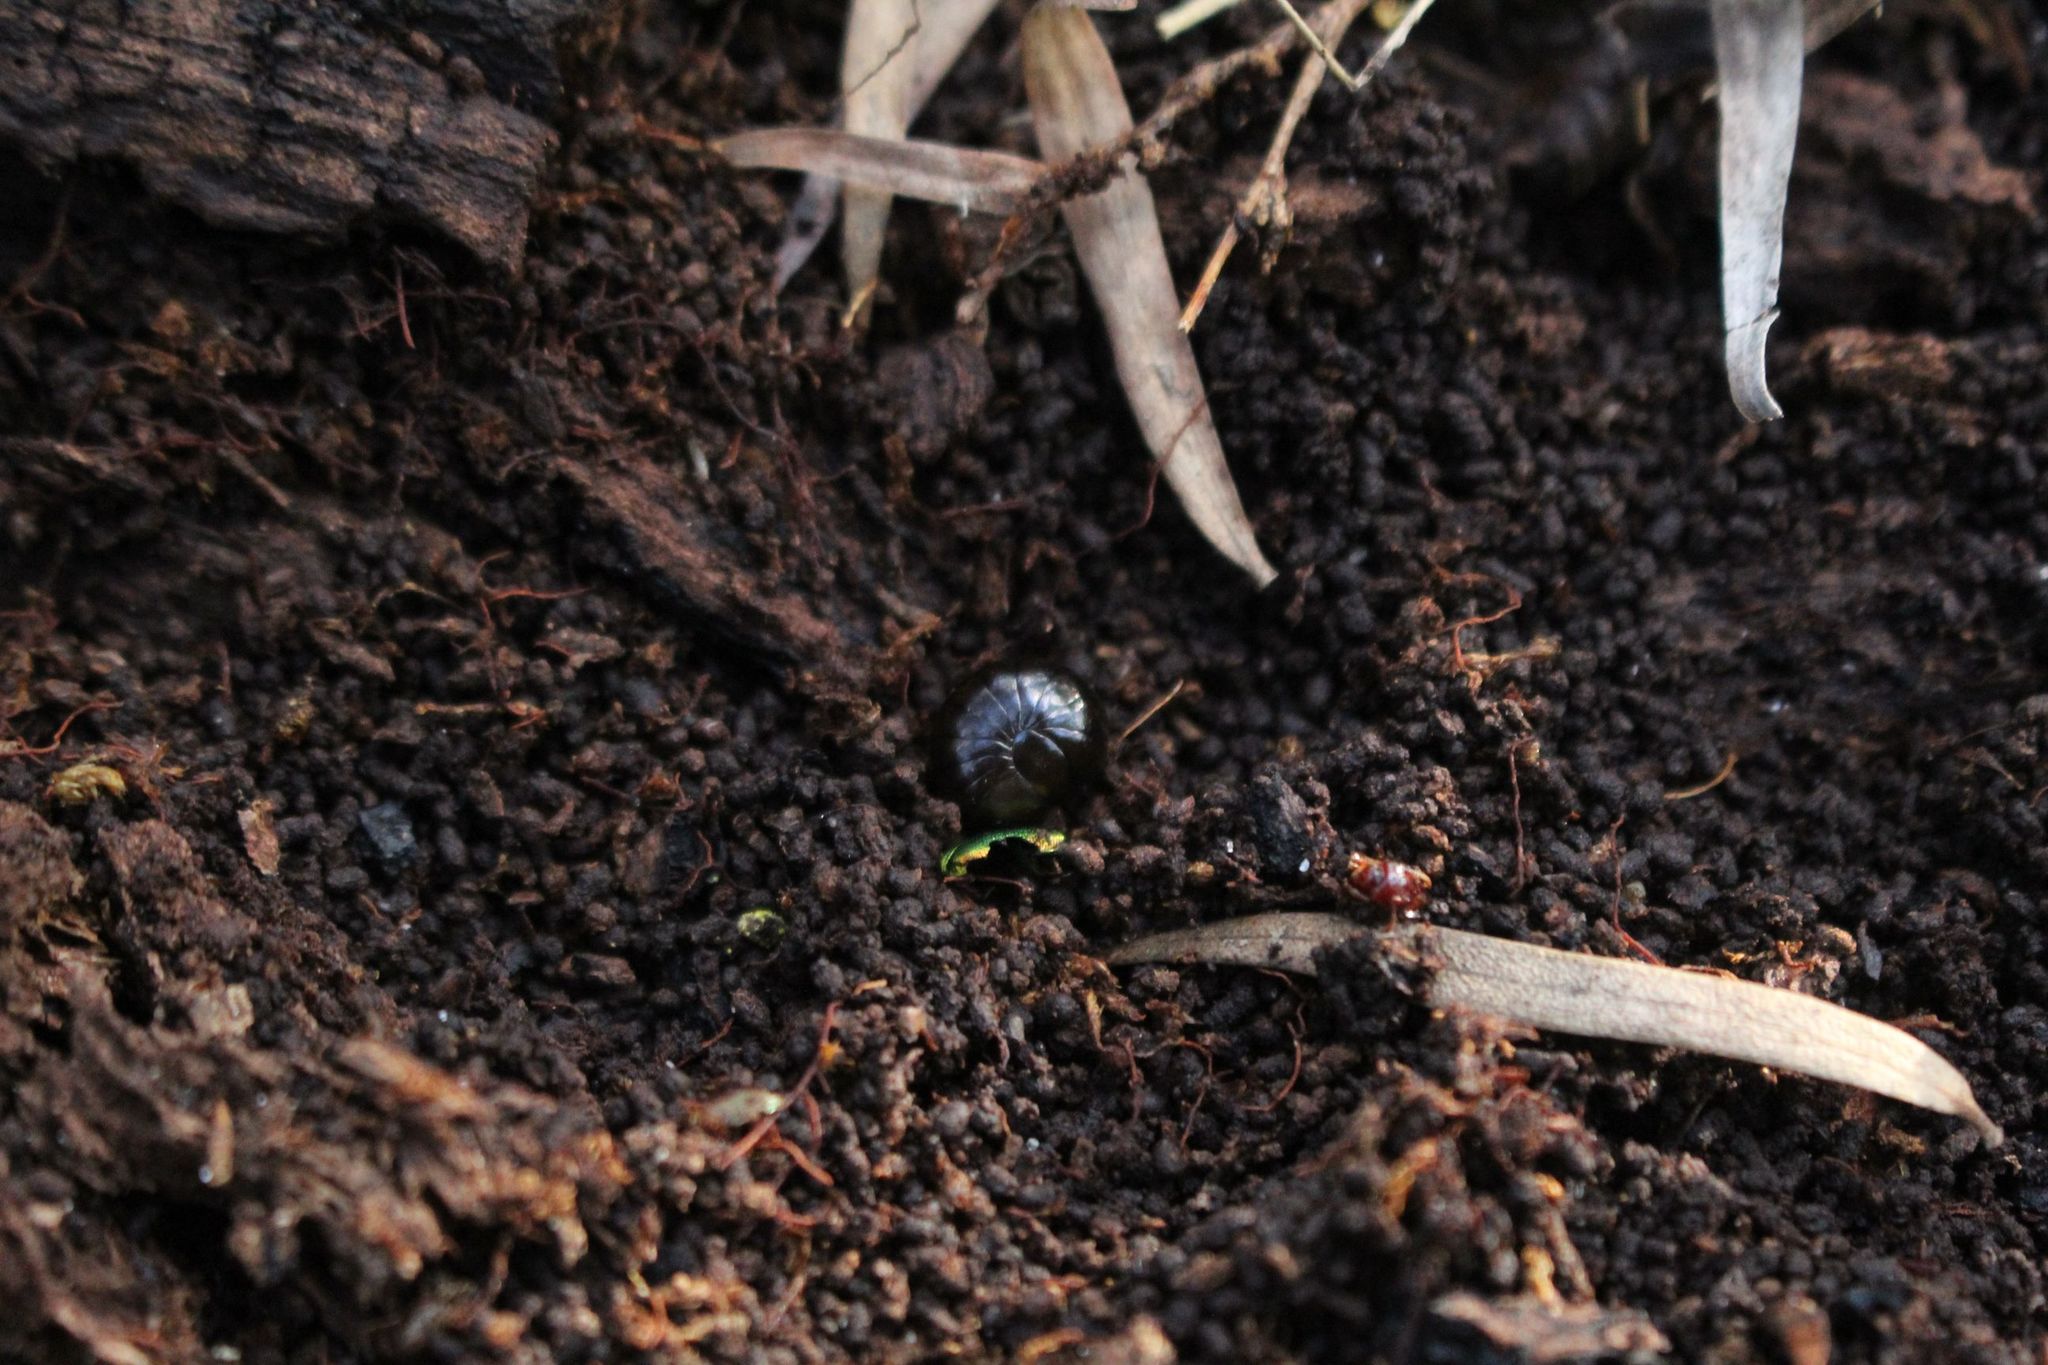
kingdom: Animalia
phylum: Arthropoda
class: Diplopoda
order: Sphaerotheriida
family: Cyliosomatidae
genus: Cynotelopus
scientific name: Cynotelopus notabilis
